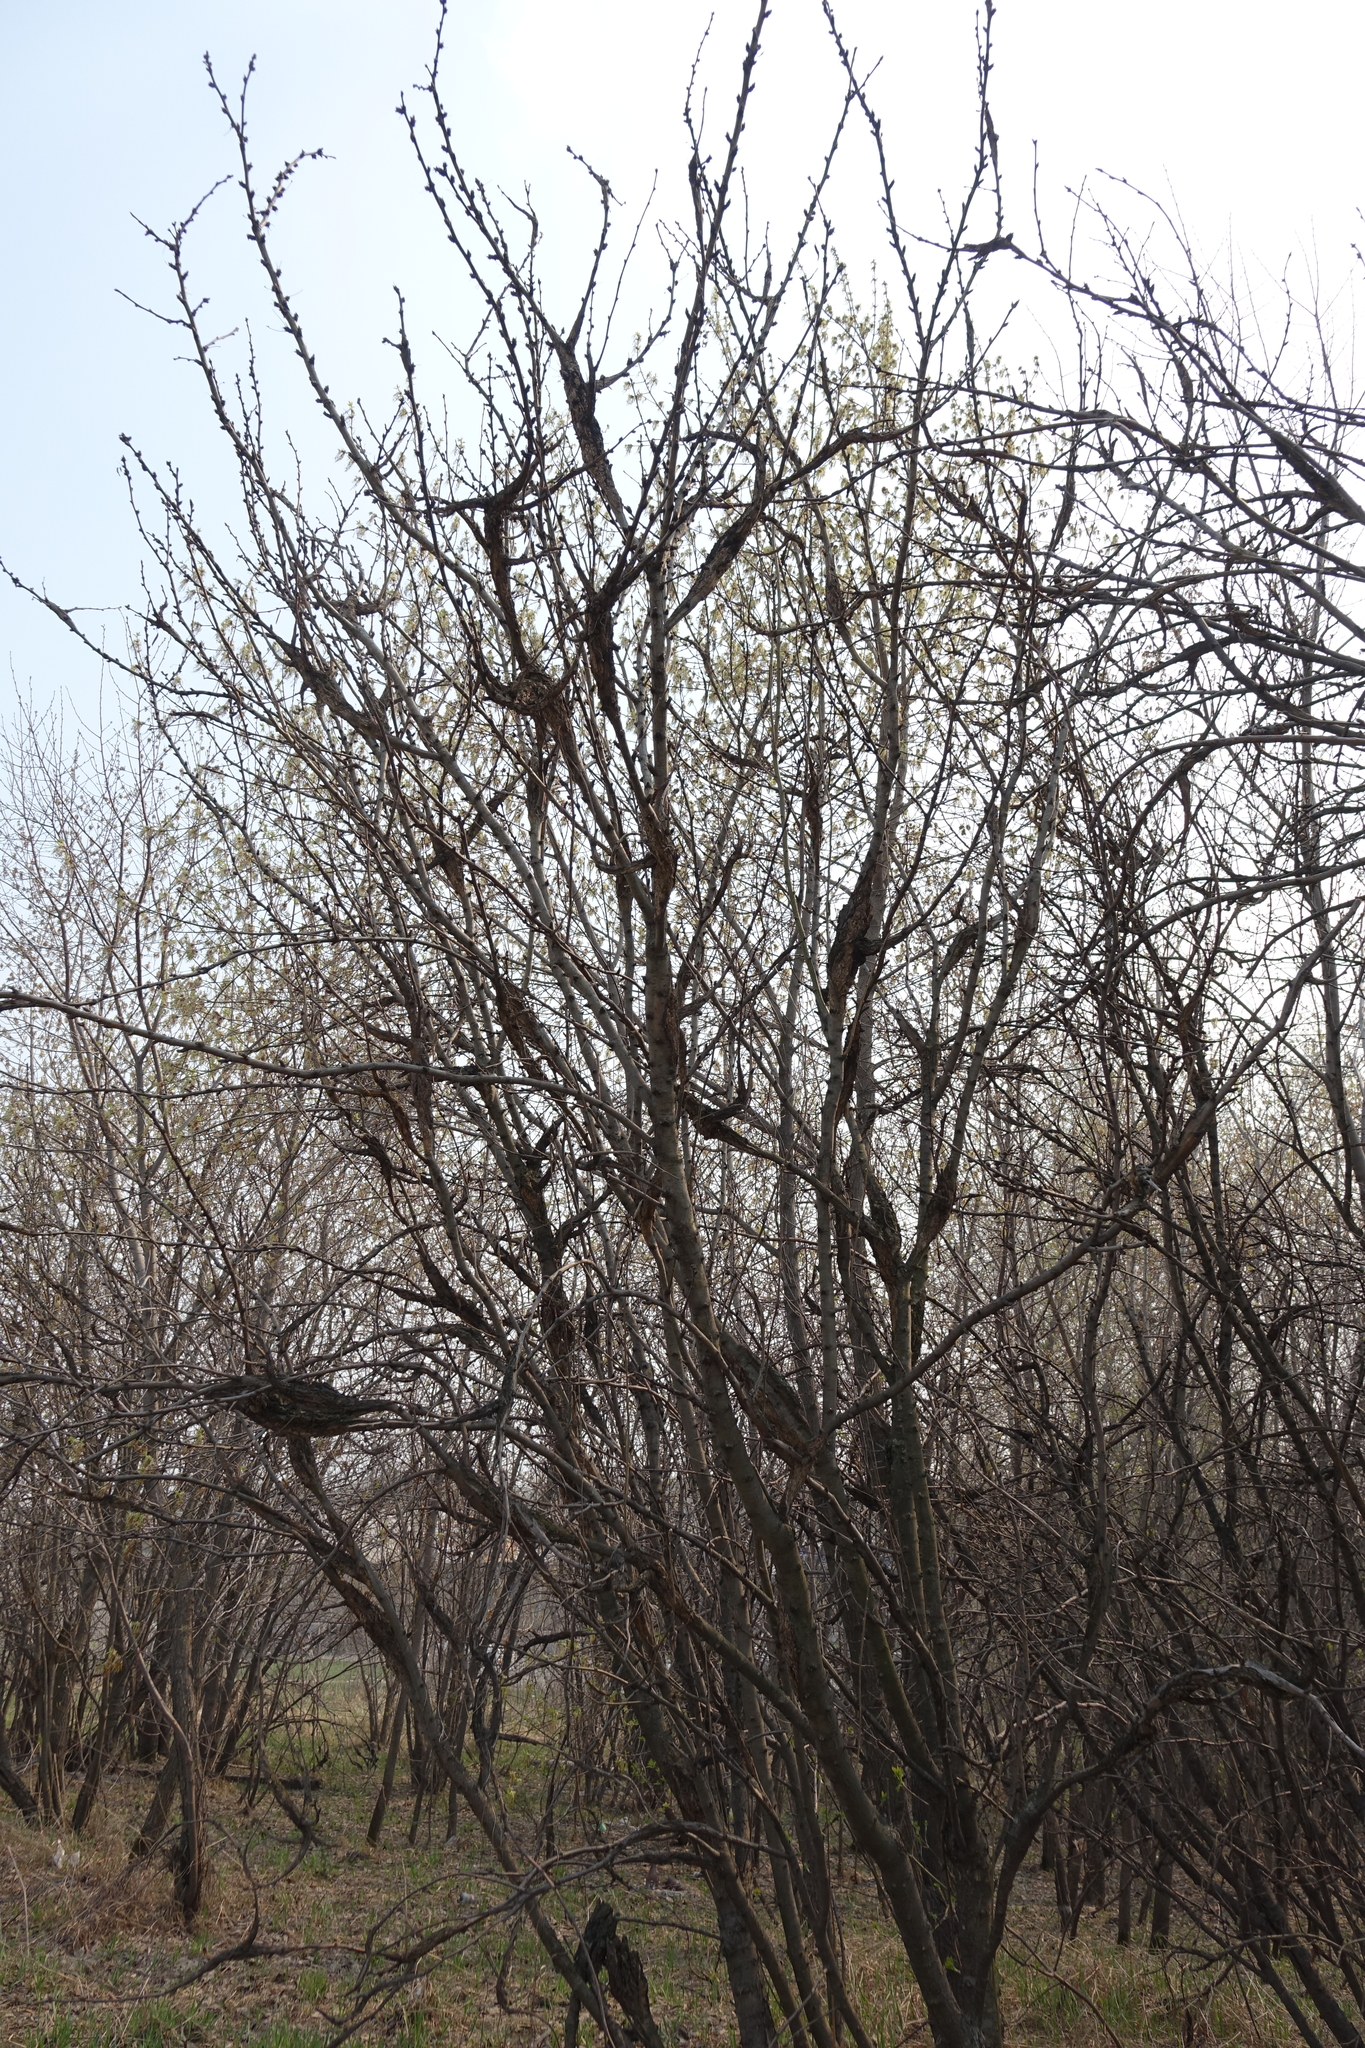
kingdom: Plantae
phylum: Tracheophyta
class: Magnoliopsida
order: Fabales
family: Fabaceae
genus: Caragana
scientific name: Caragana arborescens
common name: Siberian peashrub
